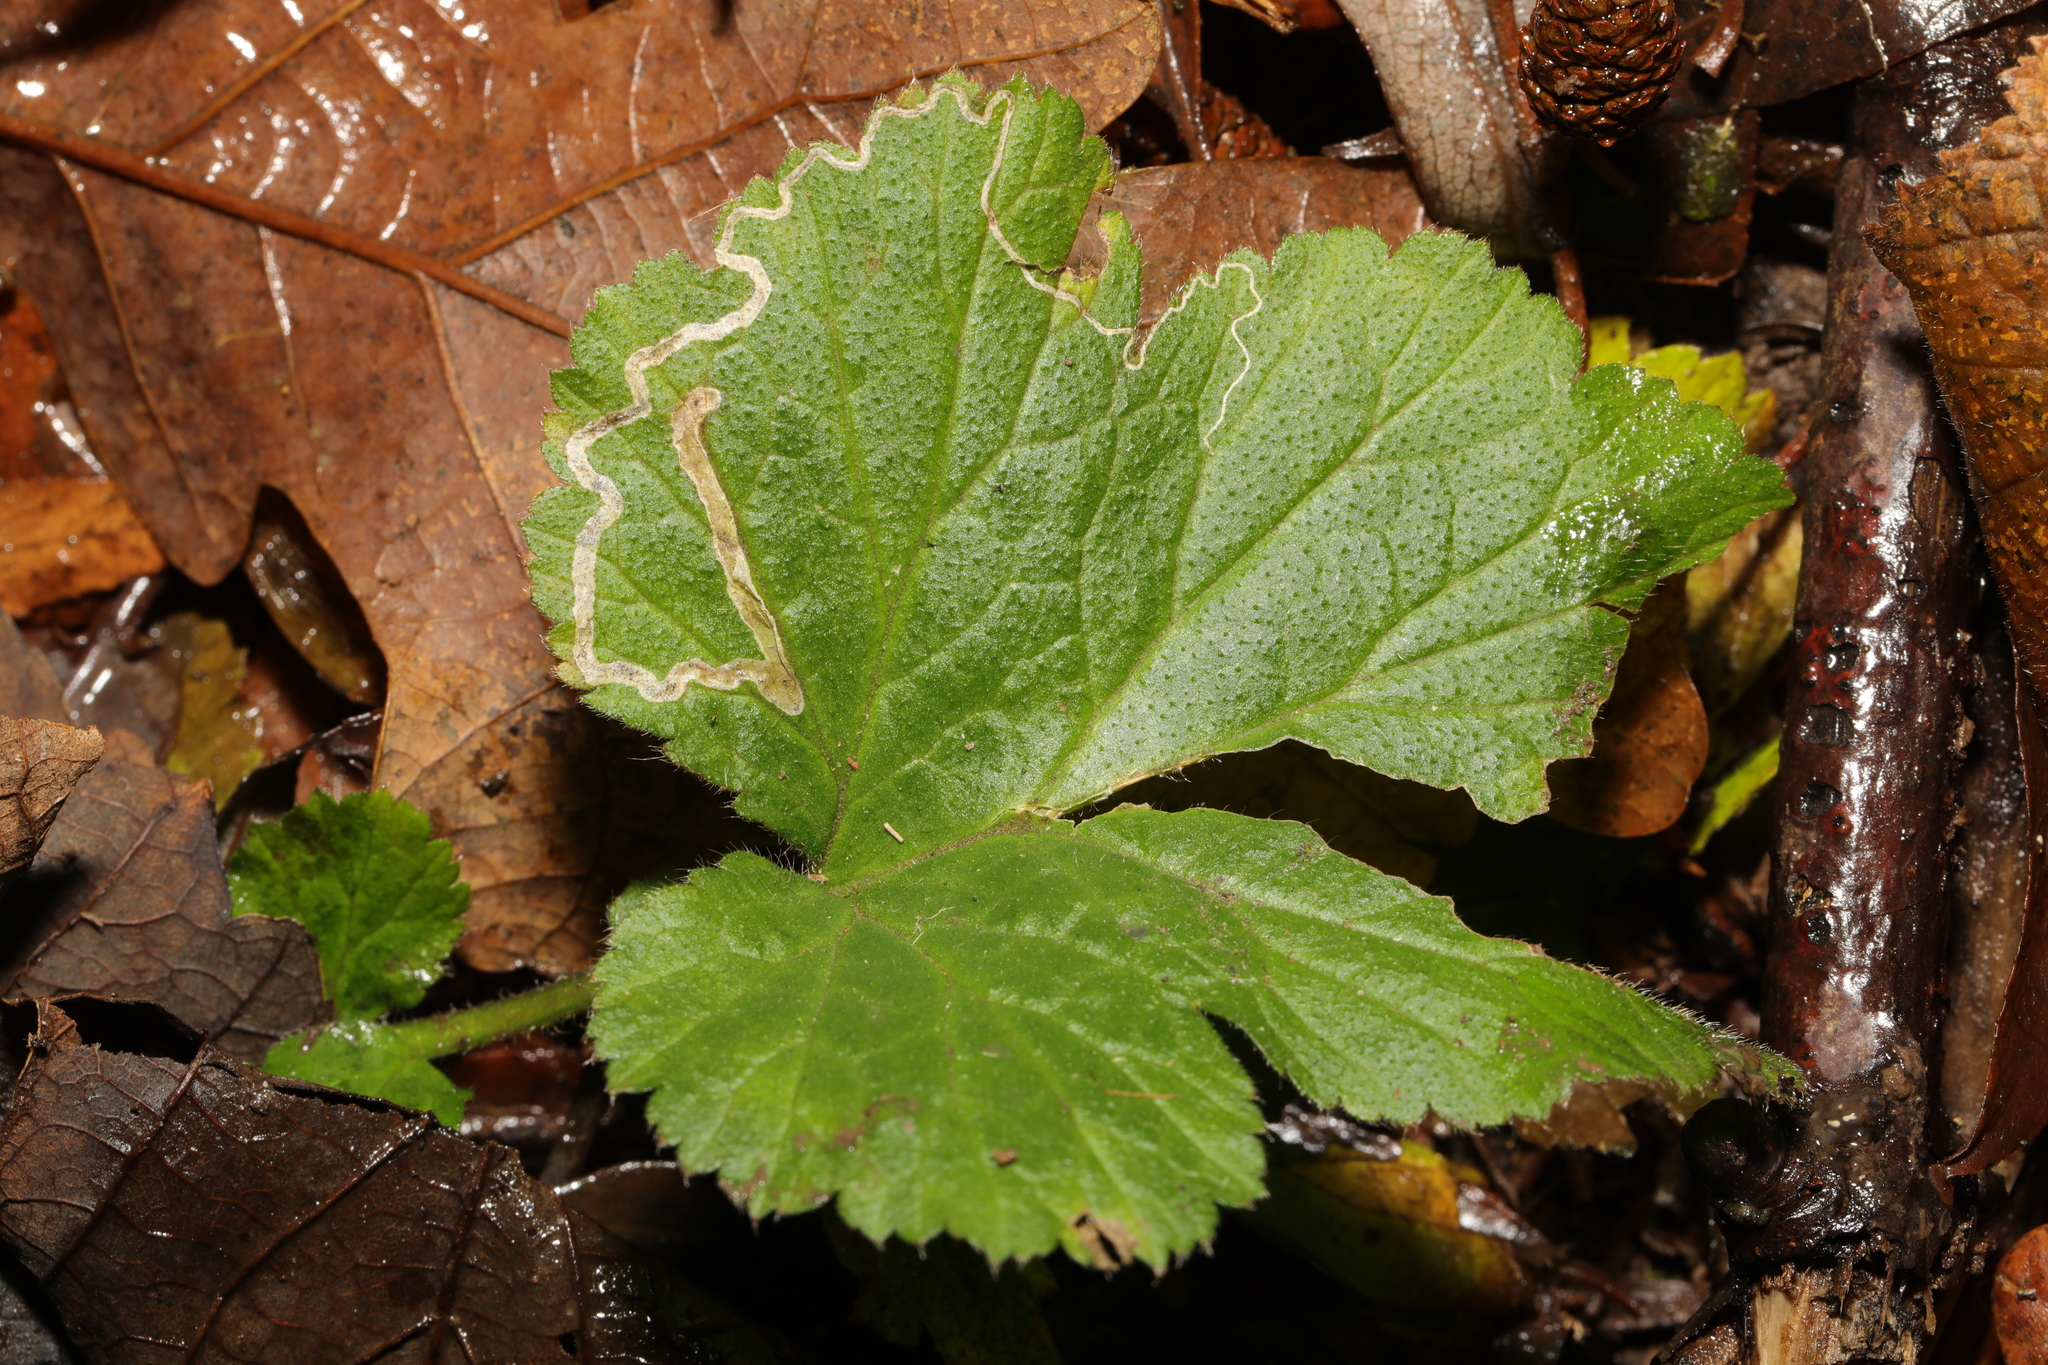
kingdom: Animalia
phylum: Arthropoda
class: Insecta
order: Lepidoptera
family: Nepticulidae
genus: Stigmella
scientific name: Stigmella aurella
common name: Golden pigmy
